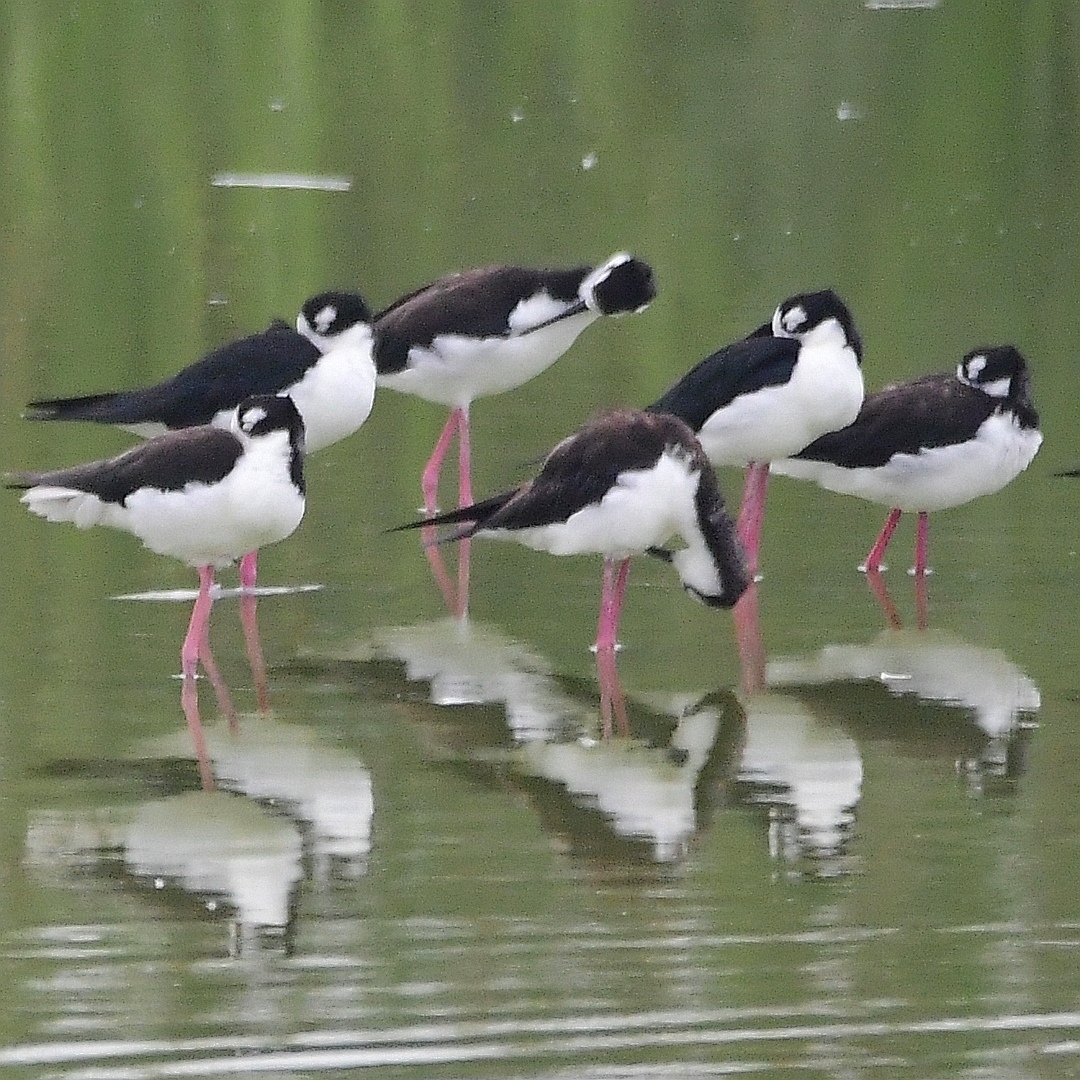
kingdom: Animalia
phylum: Chordata
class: Aves
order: Charadriiformes
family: Recurvirostridae
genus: Himantopus
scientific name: Himantopus mexicanus
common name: Black-necked stilt
